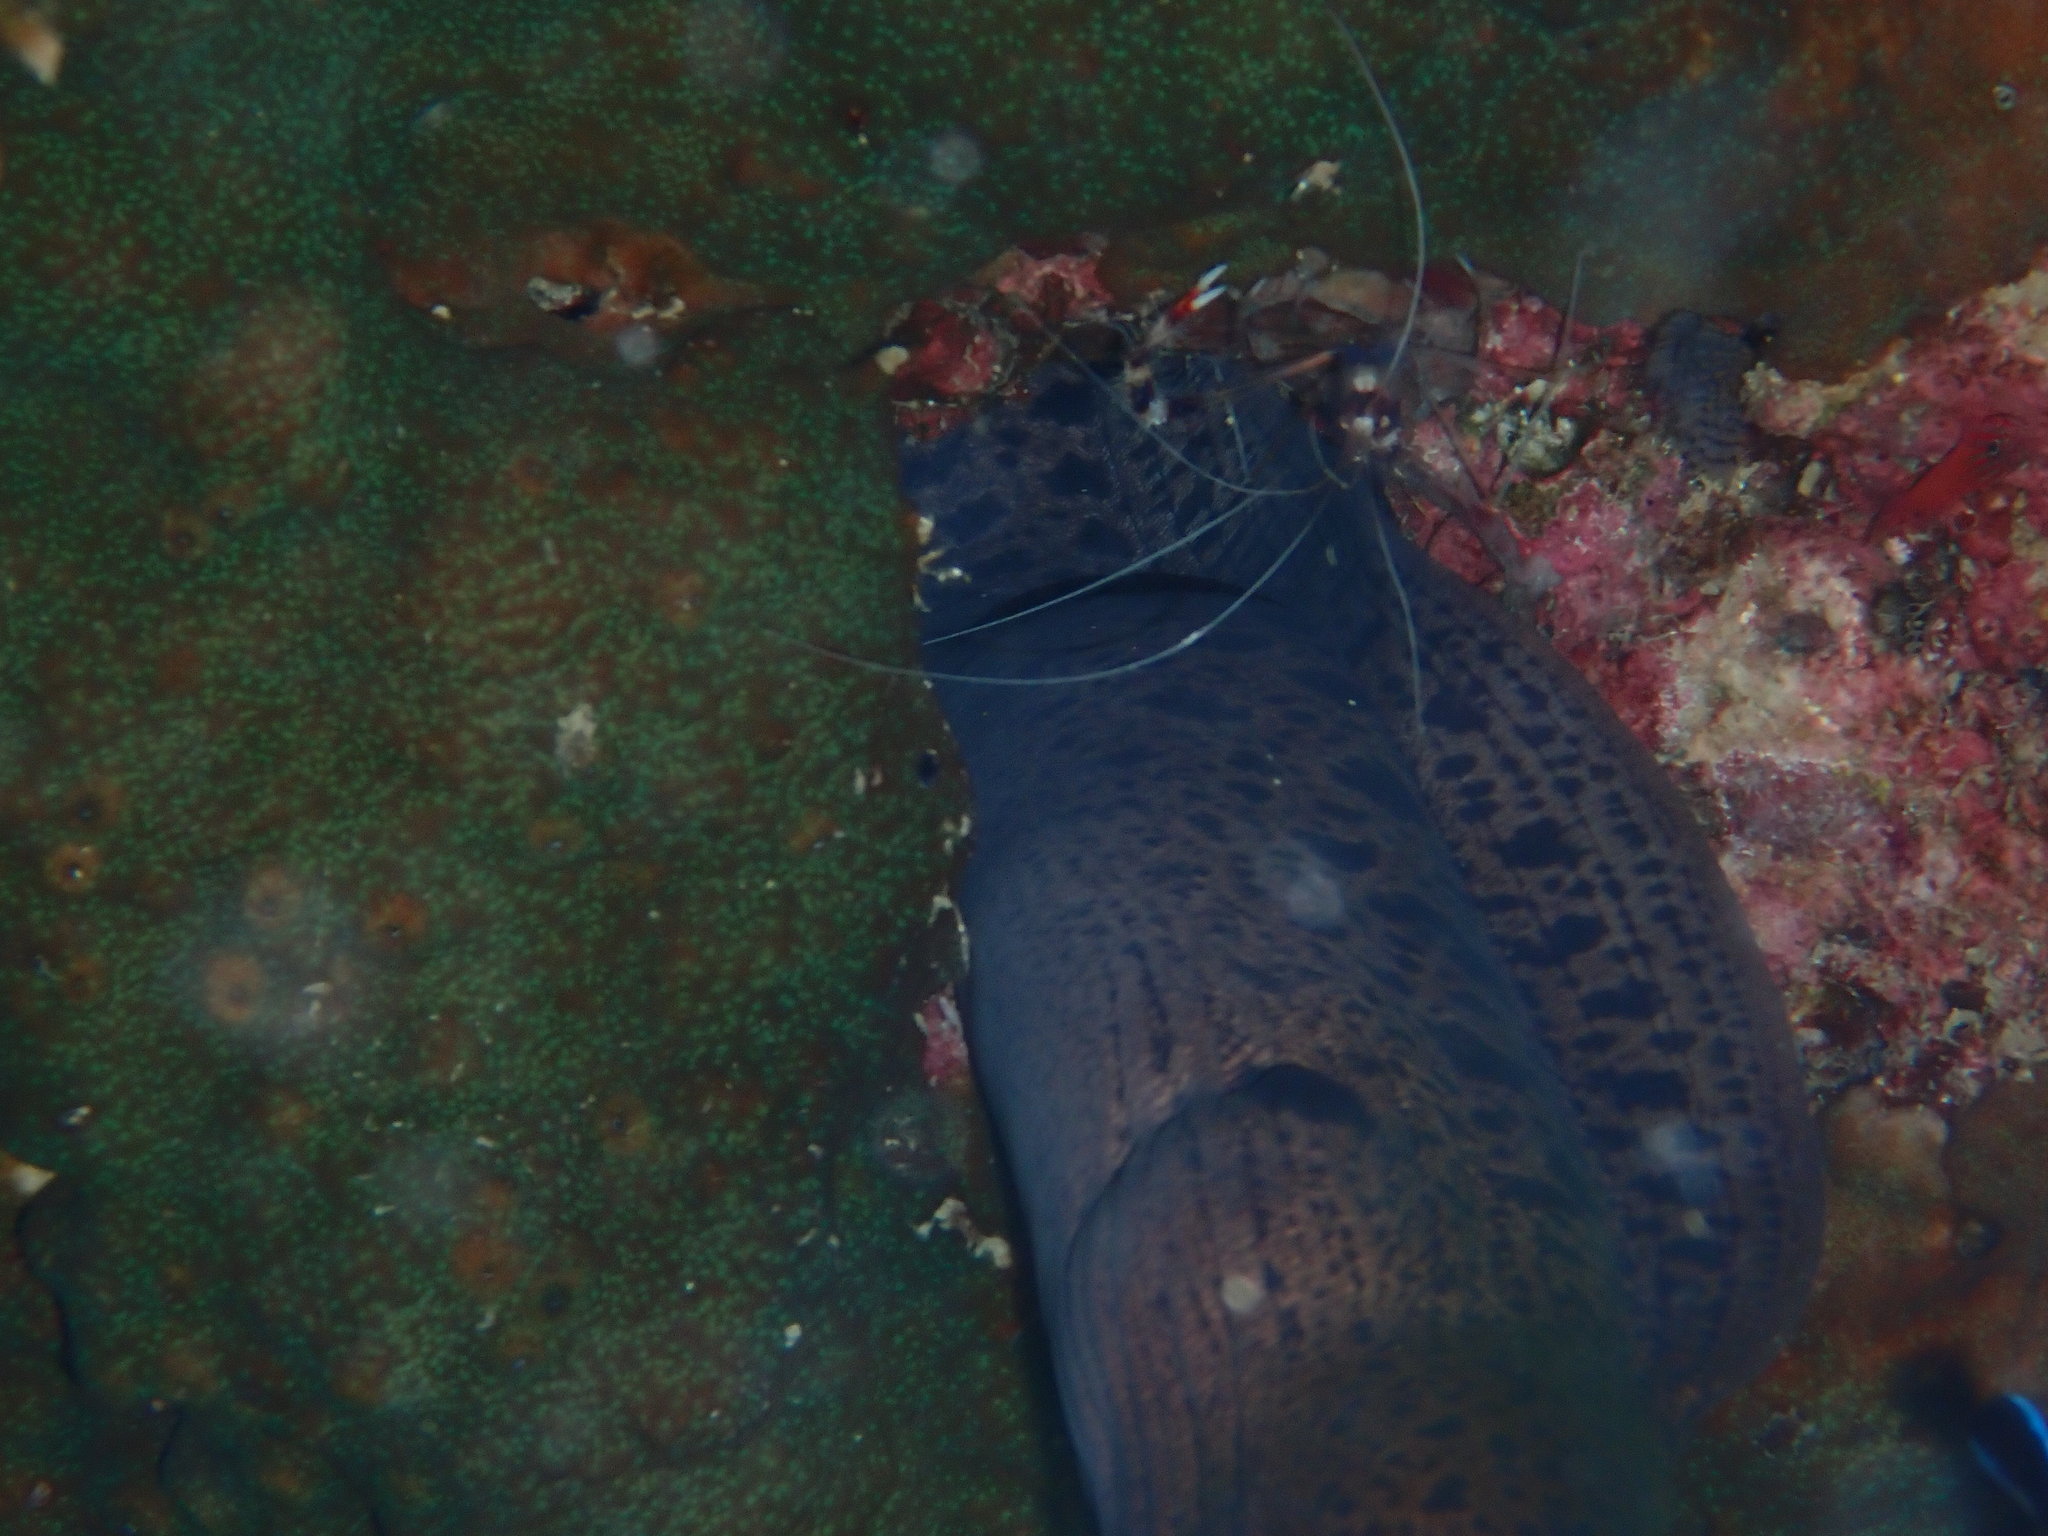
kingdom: Animalia
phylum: Arthropoda
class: Malacostraca
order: Decapoda
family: Stenopodidae
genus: Stenopus
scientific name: Stenopus hispidus
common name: Banded coral shrimp
